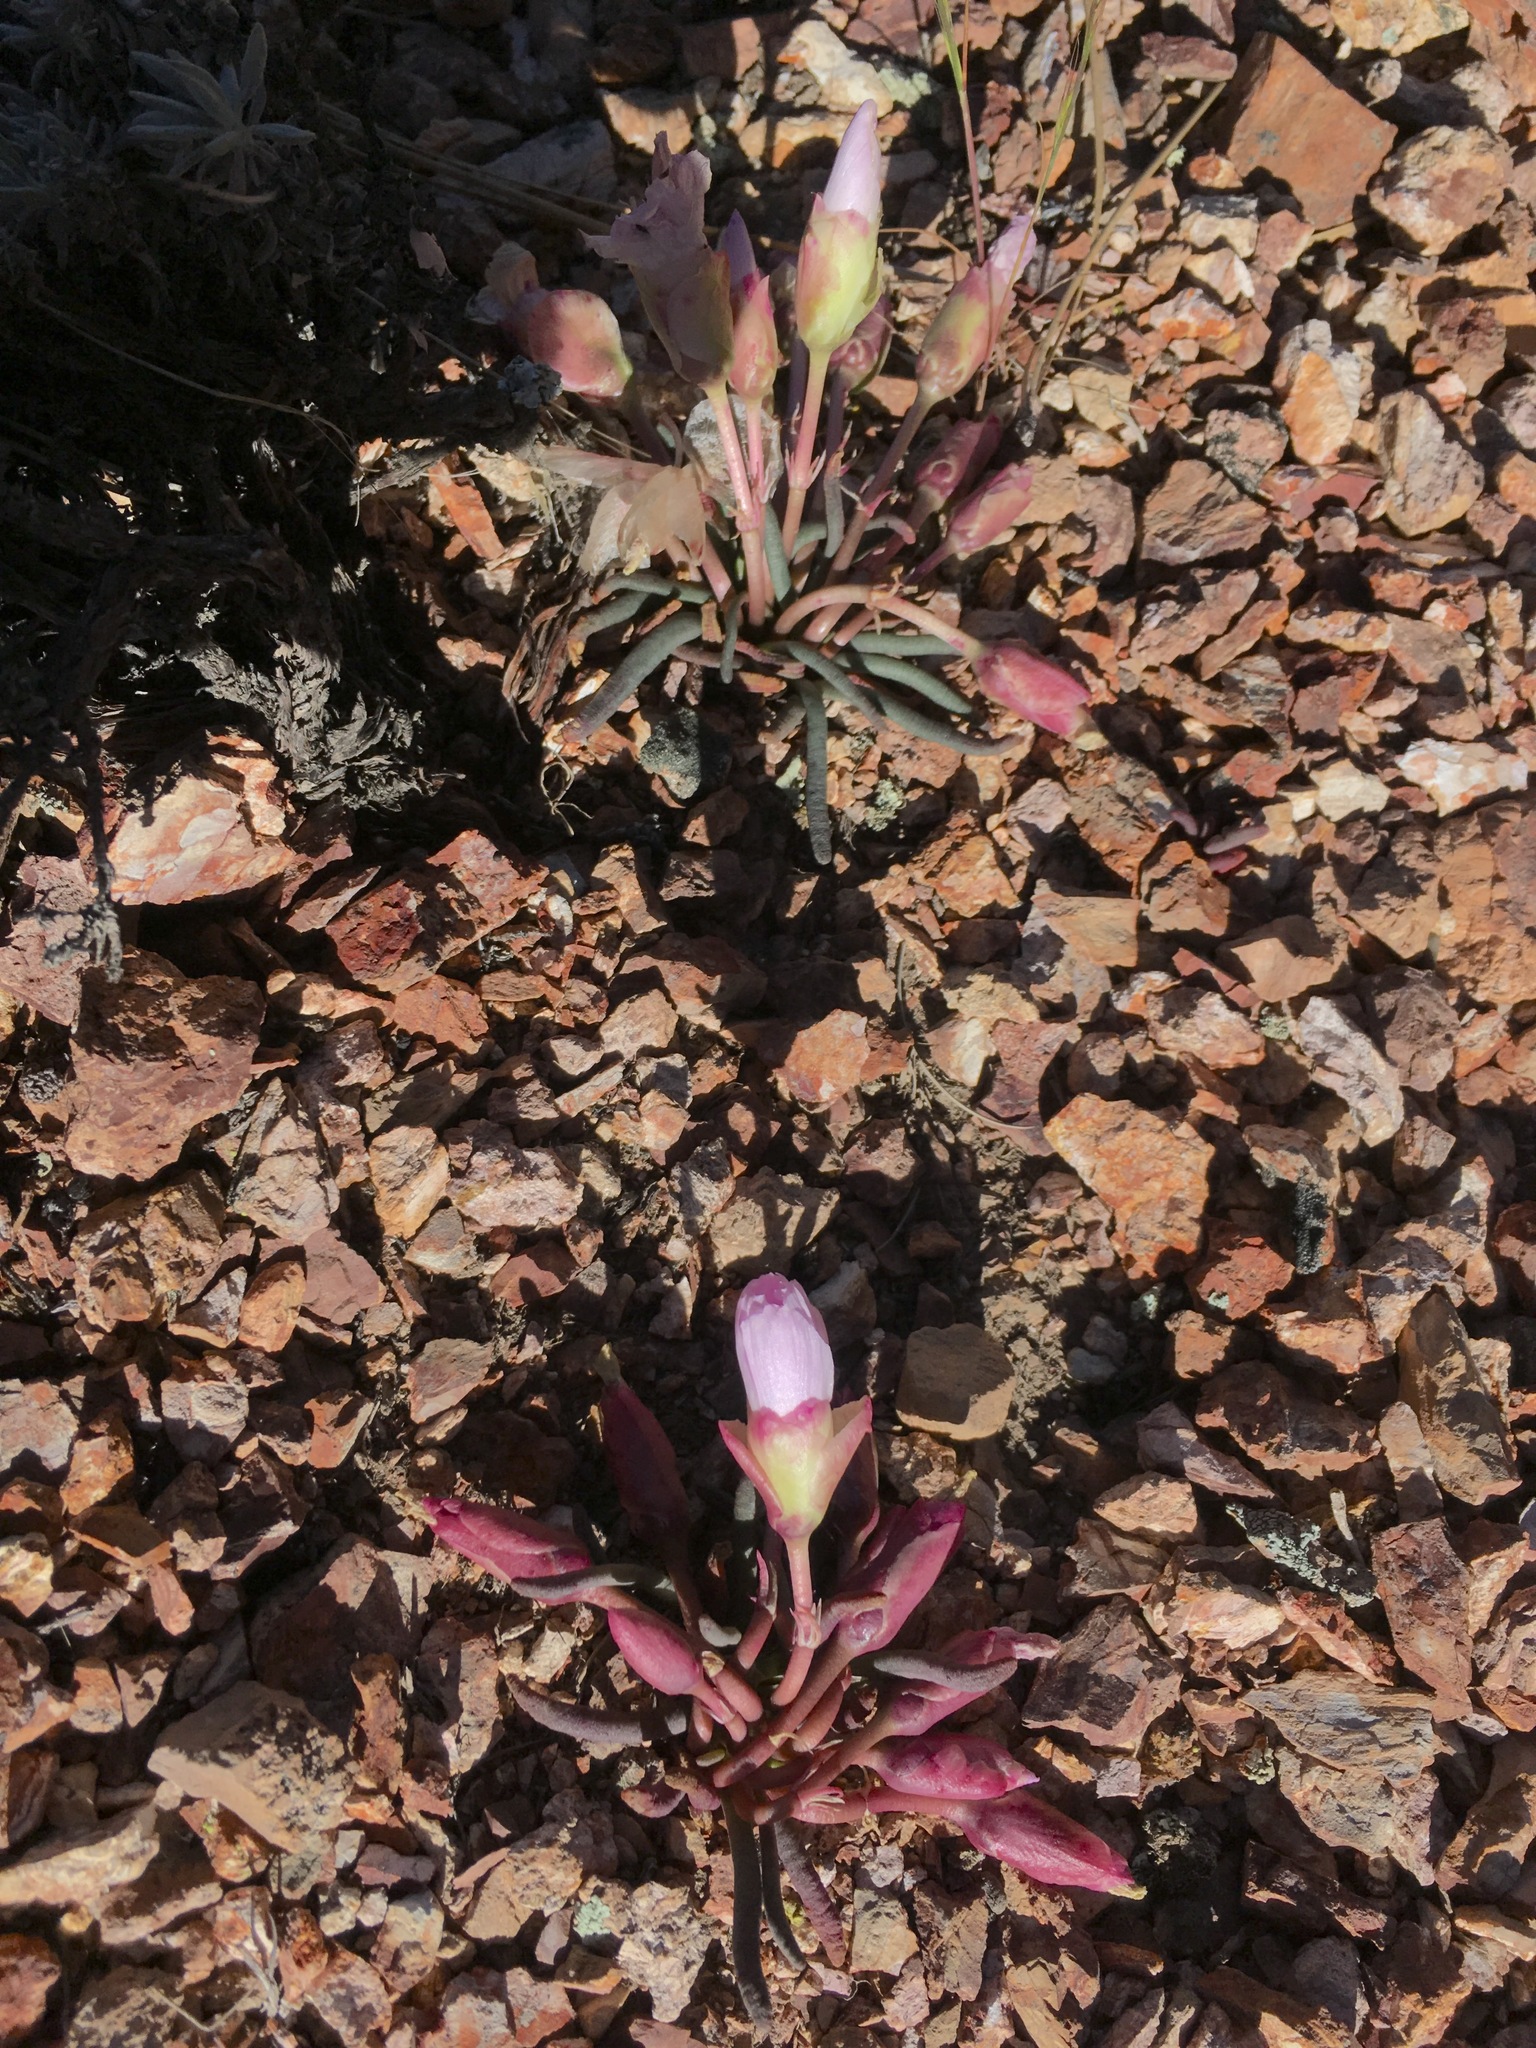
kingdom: Plantae
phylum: Tracheophyta
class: Magnoliopsida
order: Caryophyllales
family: Montiaceae
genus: Lewisia
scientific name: Lewisia rediviva
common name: Bitter-root
